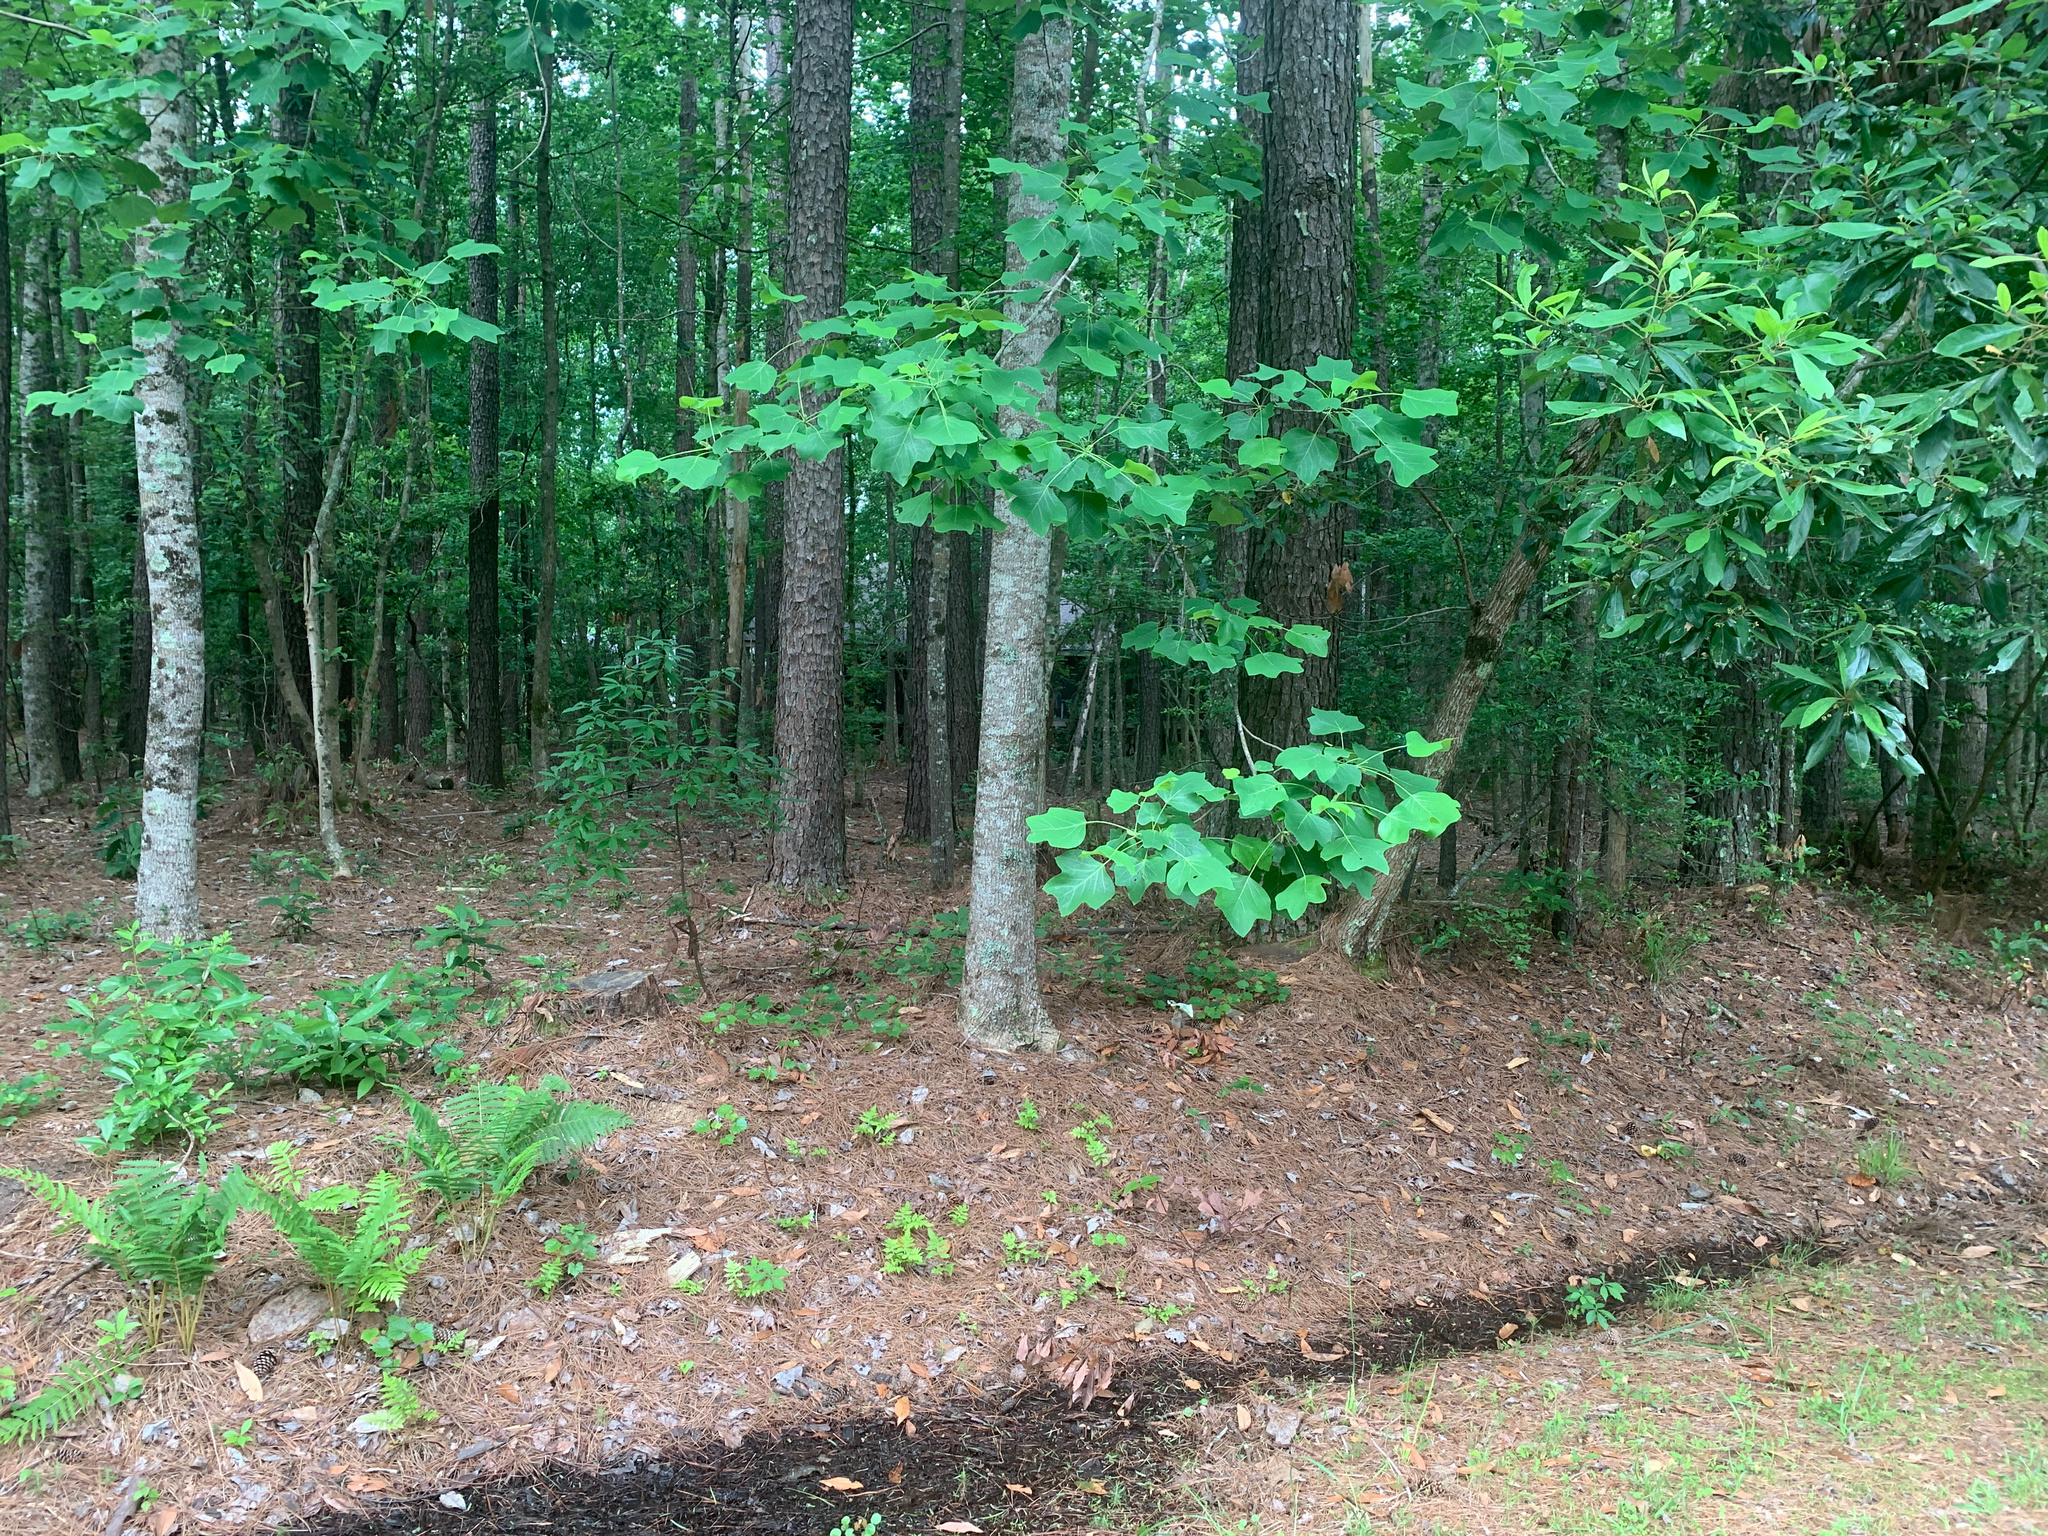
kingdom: Plantae
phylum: Tracheophyta
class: Magnoliopsida
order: Magnoliales
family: Magnoliaceae
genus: Liriodendron
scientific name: Liriodendron tulipifera
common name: Tulip tree
